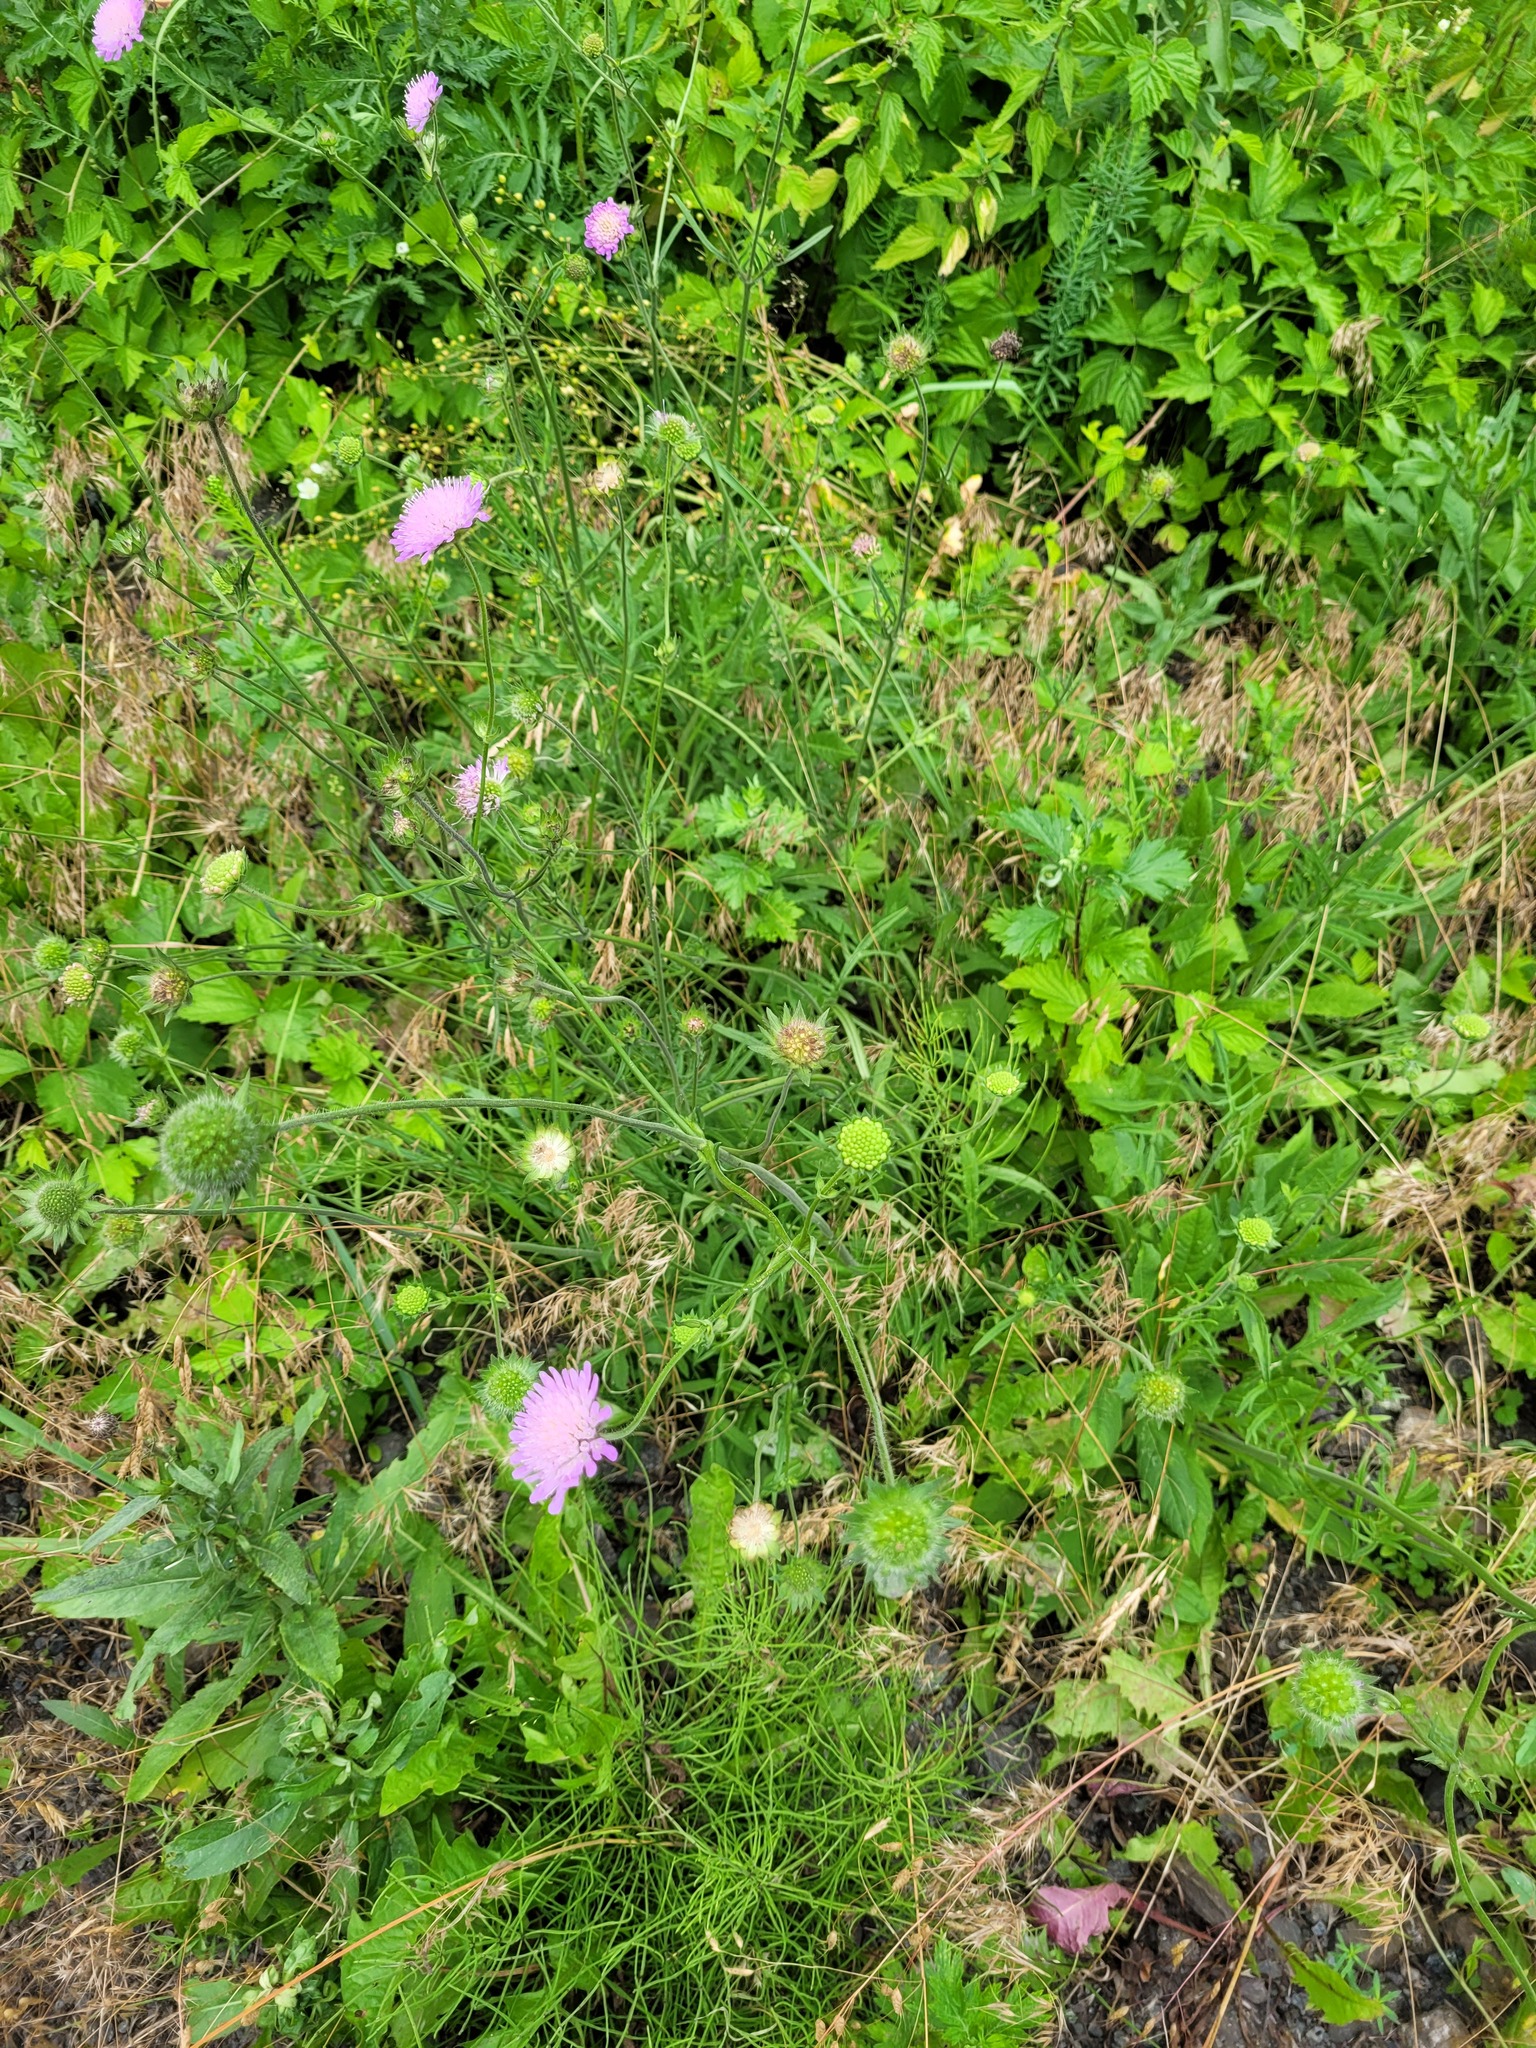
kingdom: Plantae
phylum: Tracheophyta
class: Magnoliopsida
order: Dipsacales
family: Caprifoliaceae
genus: Knautia
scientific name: Knautia arvensis
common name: Field scabiosa
